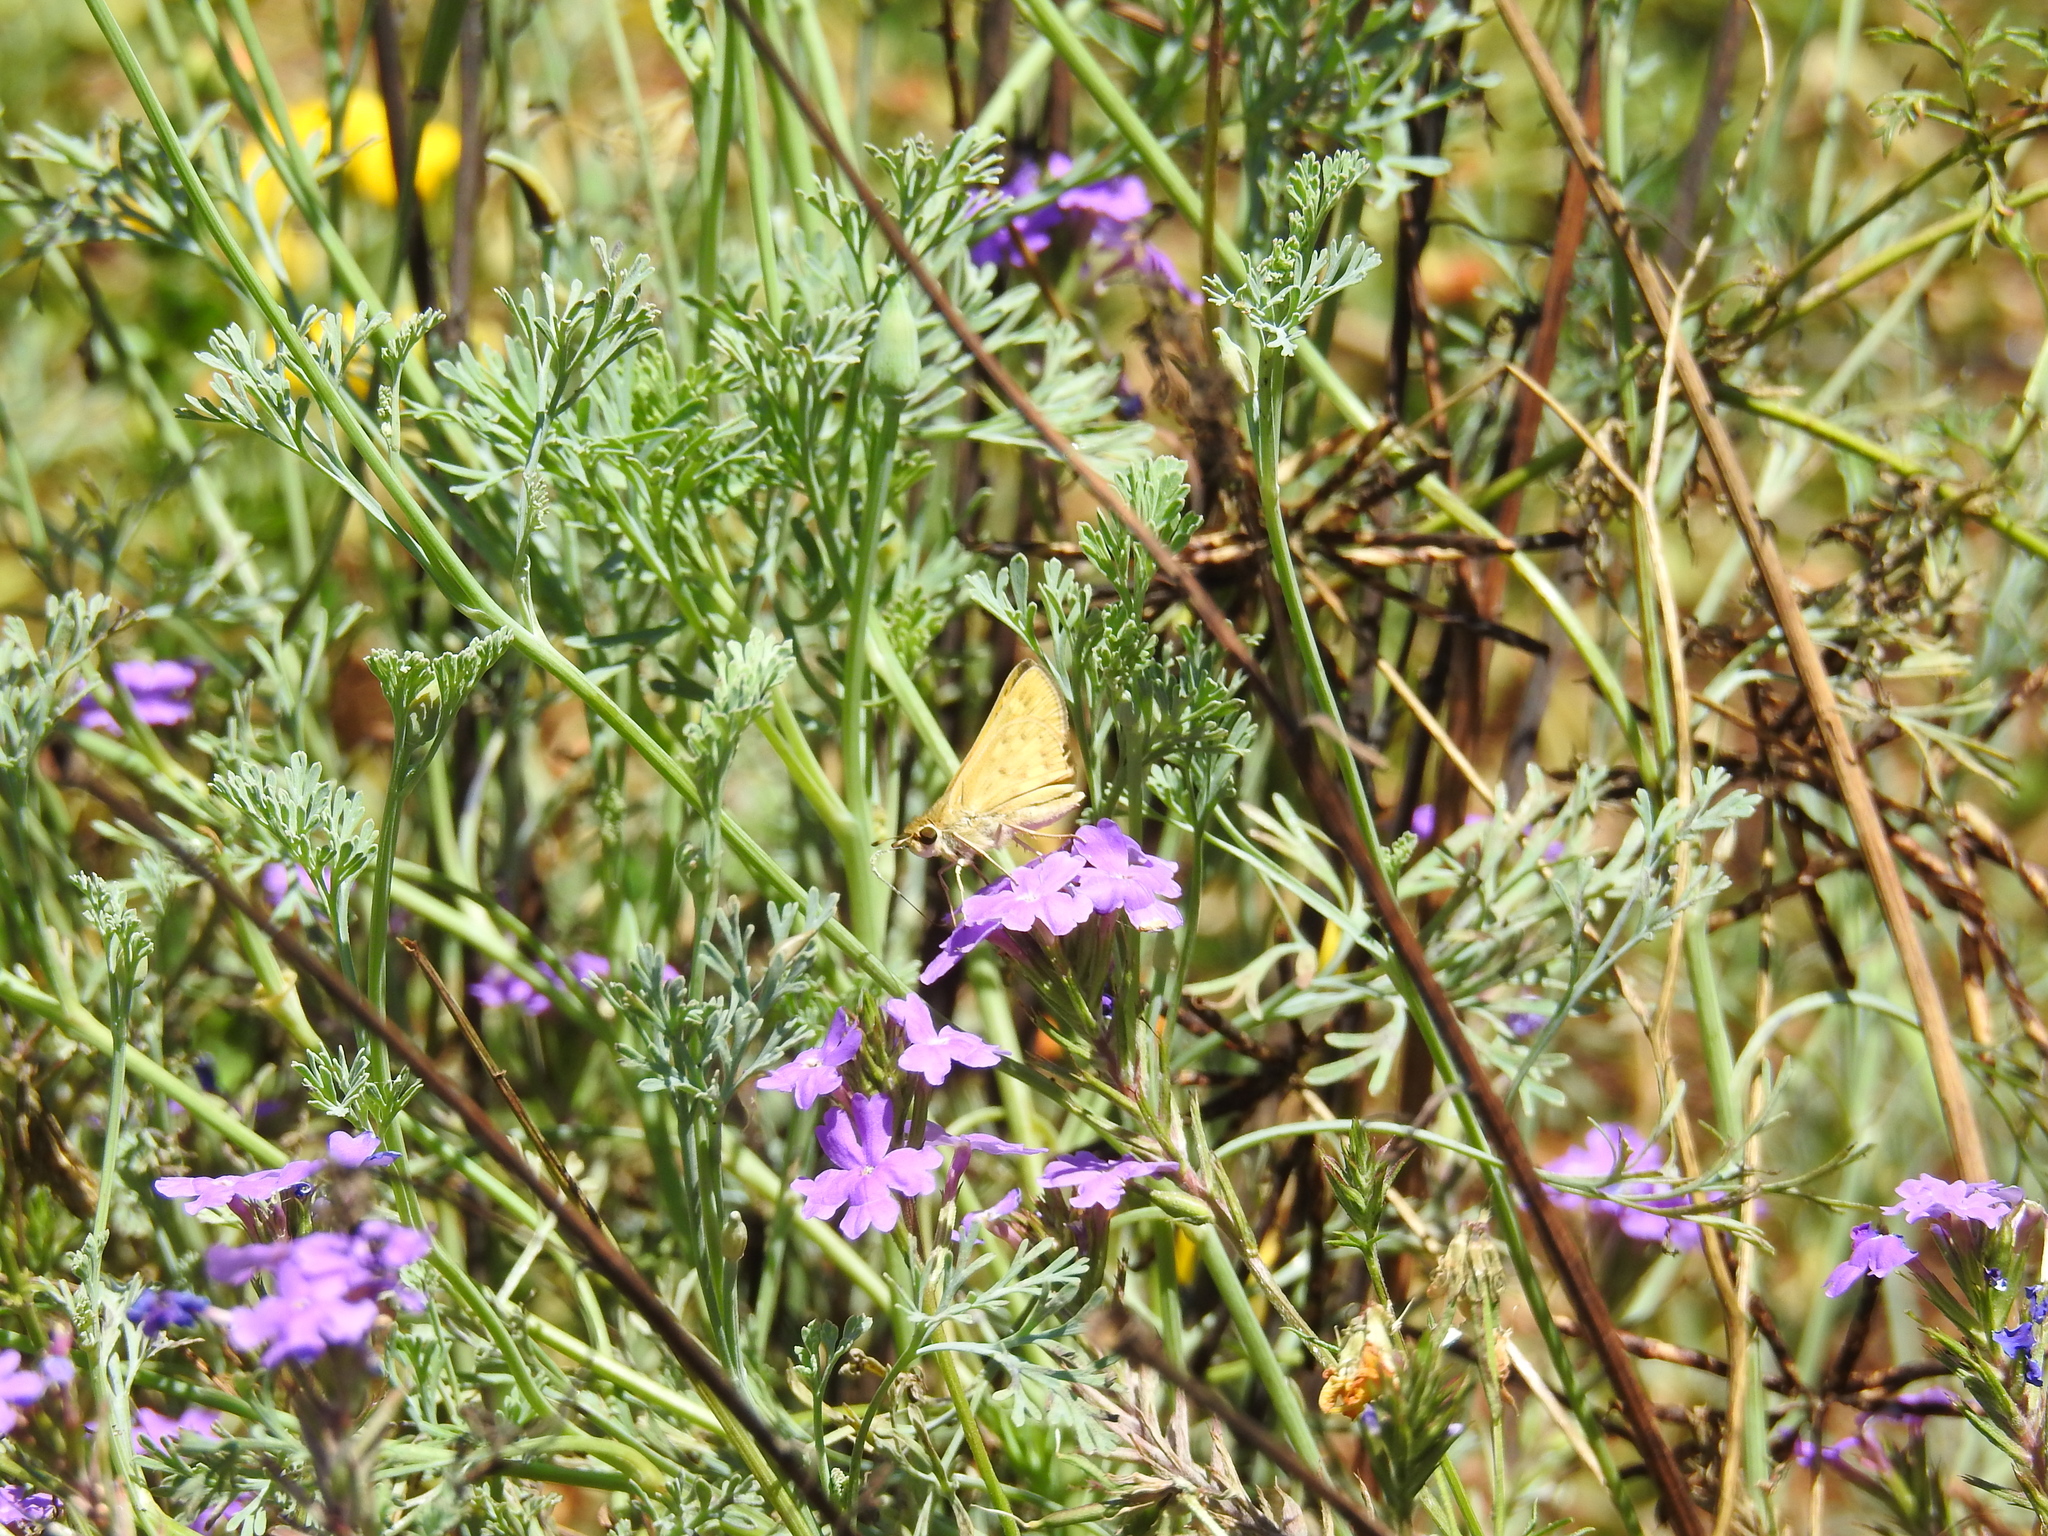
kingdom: Animalia
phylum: Arthropoda
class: Insecta
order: Lepidoptera
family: Hesperiidae
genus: Hylephila
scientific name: Hylephila phyleus
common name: Fiery skipper
